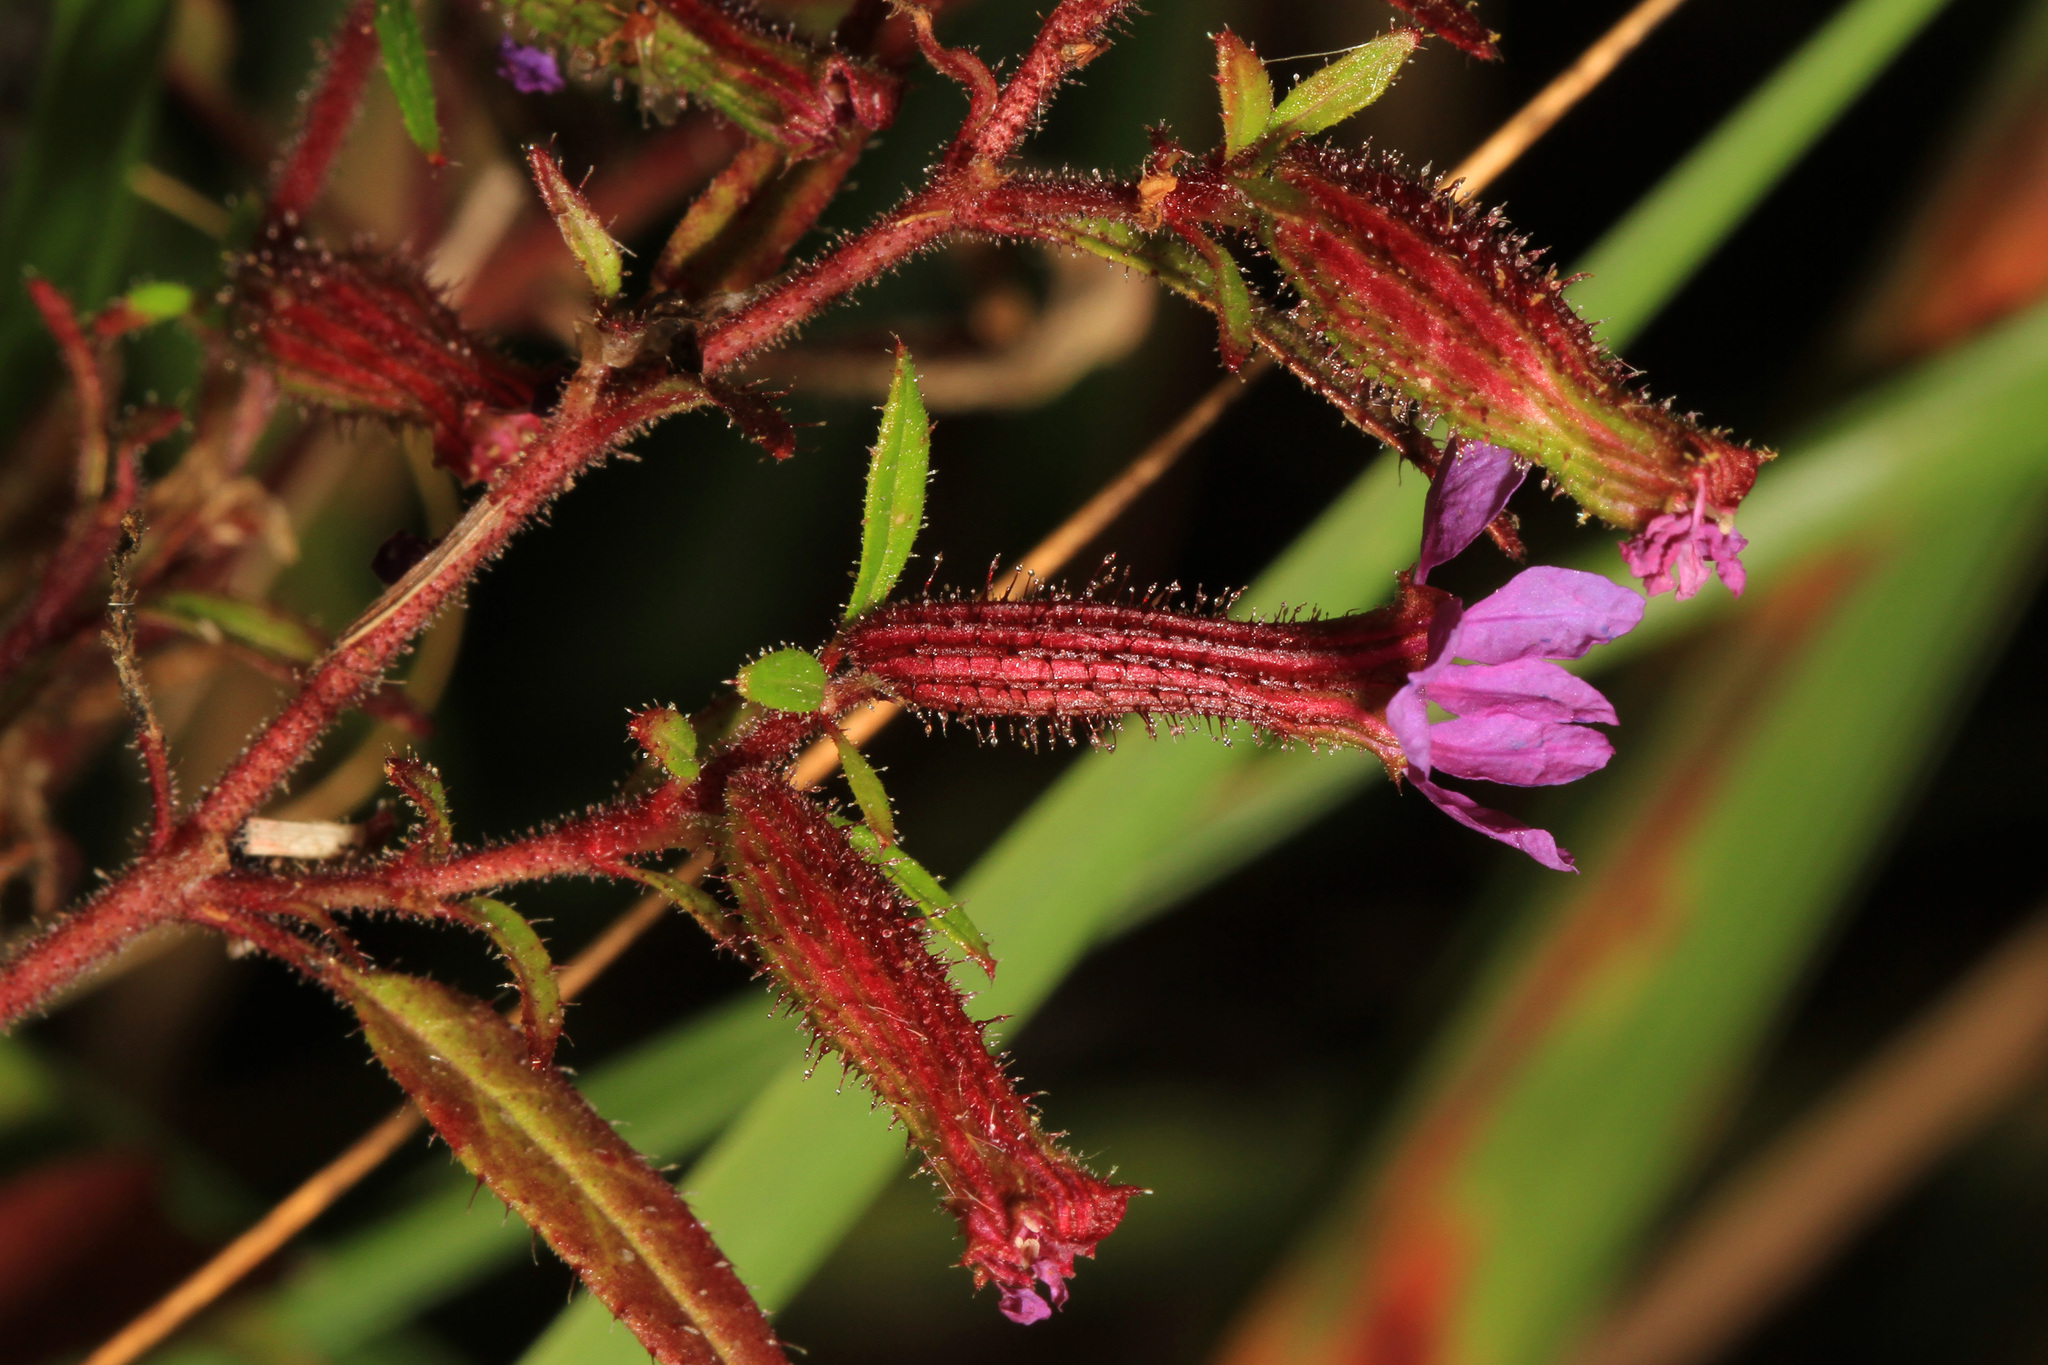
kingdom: Plantae
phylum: Tracheophyta
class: Magnoliopsida
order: Myrtales
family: Lythraceae
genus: Cuphea
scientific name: Cuphea viscosissima
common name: Clammy cuphea
